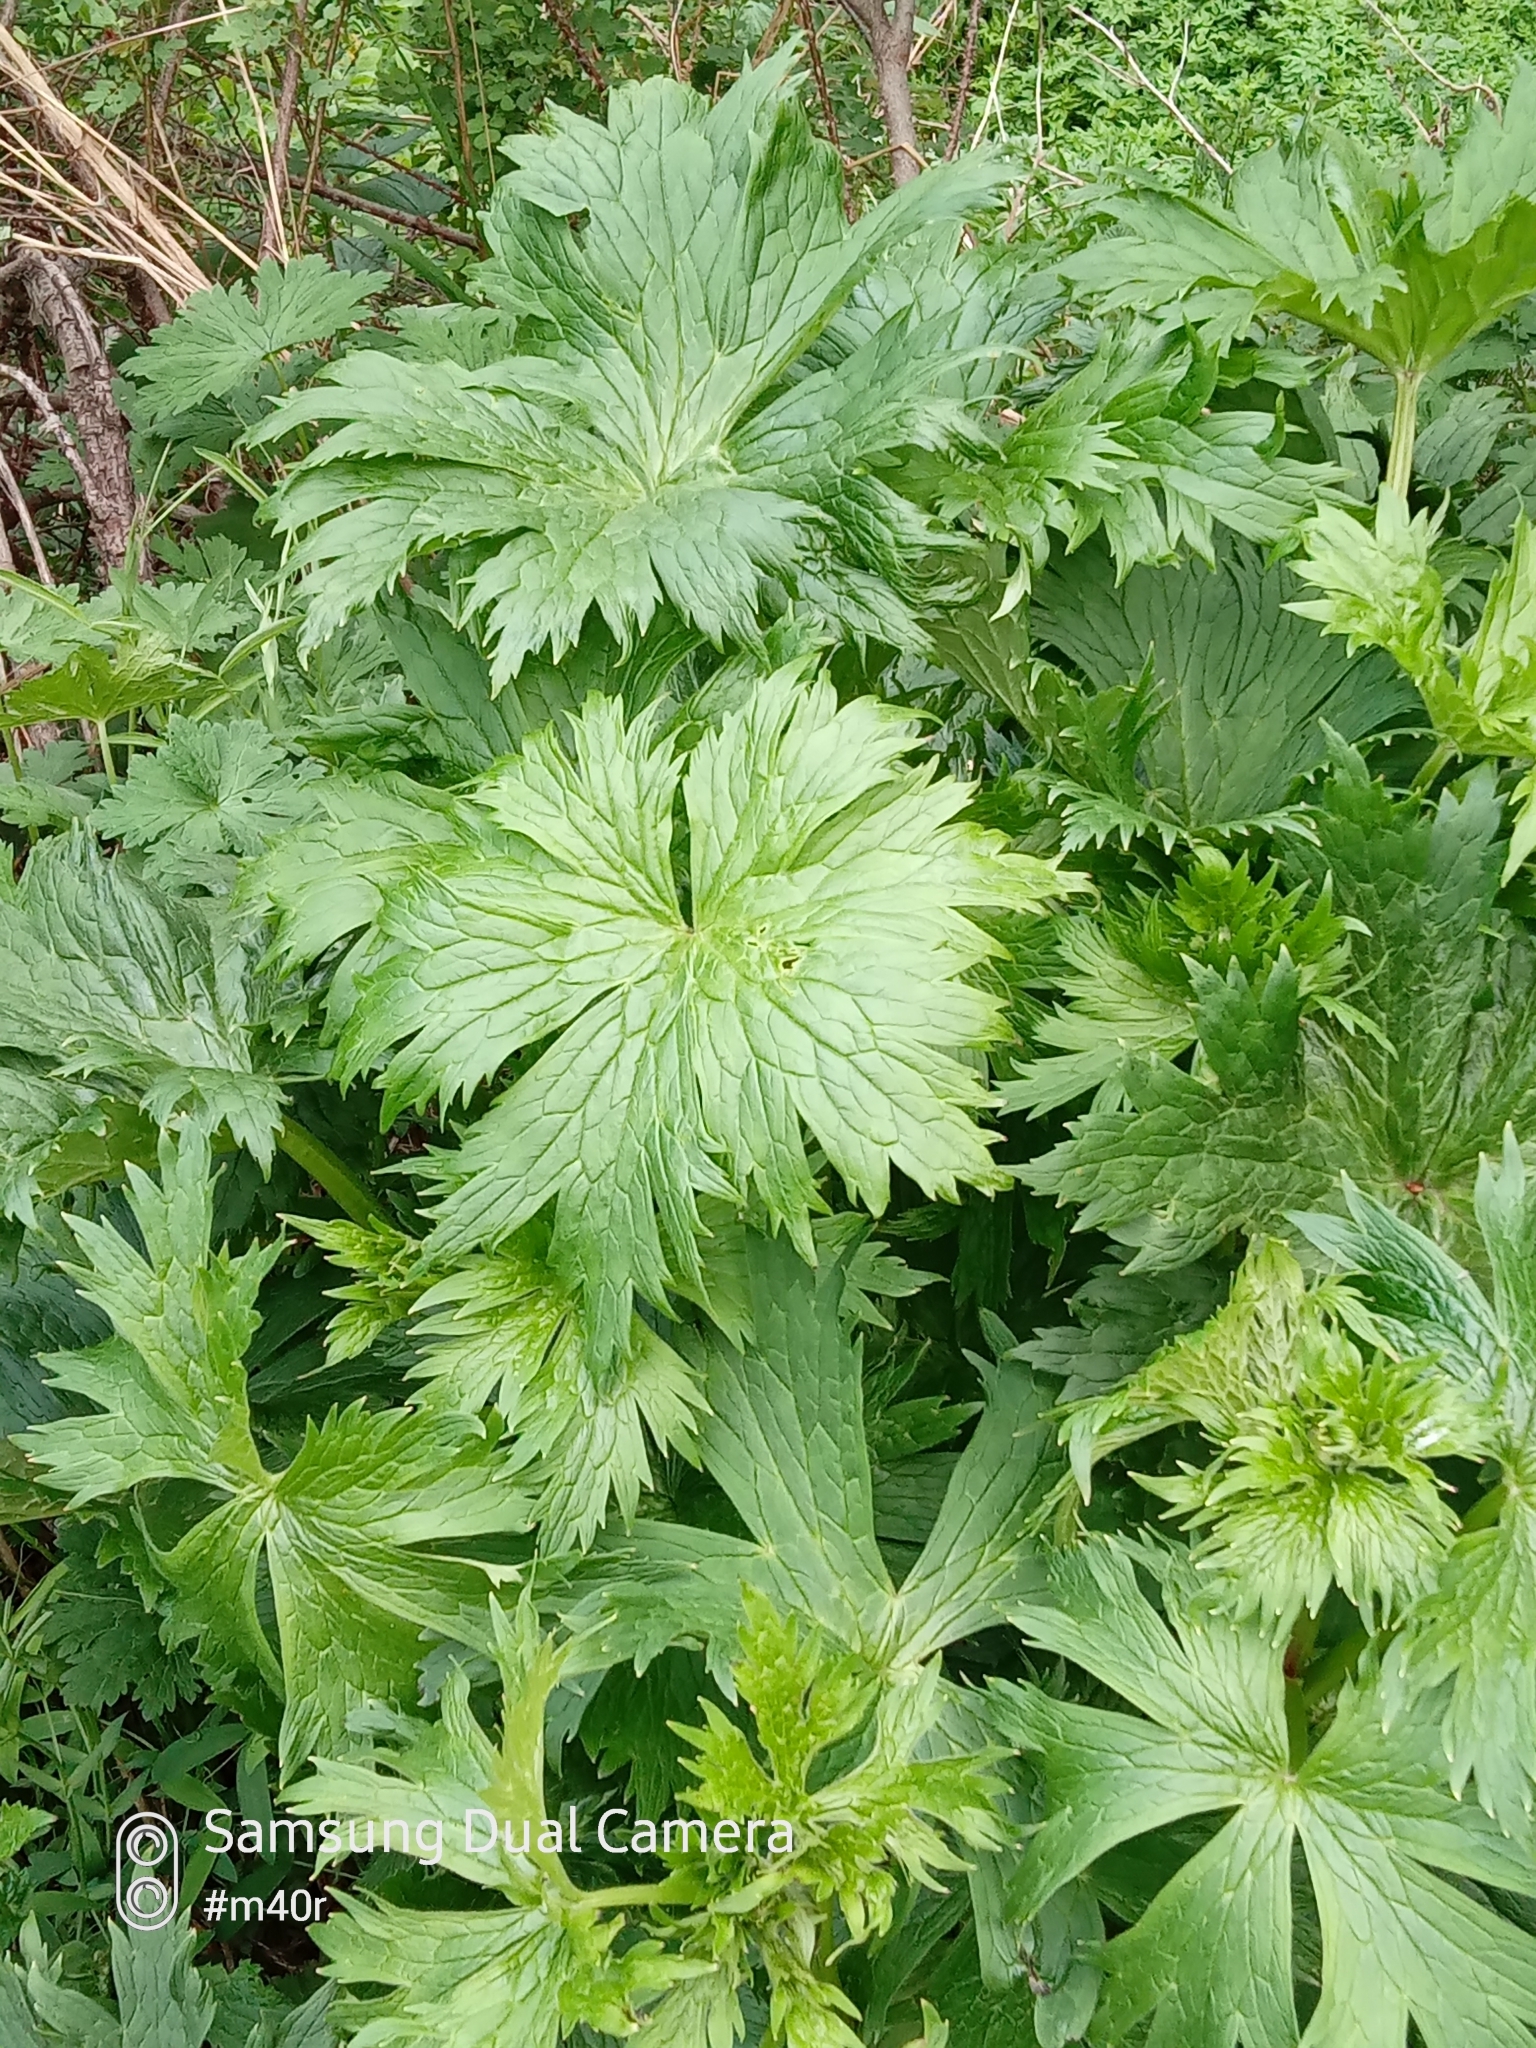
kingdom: Plantae
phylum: Tracheophyta
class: Magnoliopsida
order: Ranunculales
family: Ranunculaceae
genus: Aconitum
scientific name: Aconitum leucostomum
